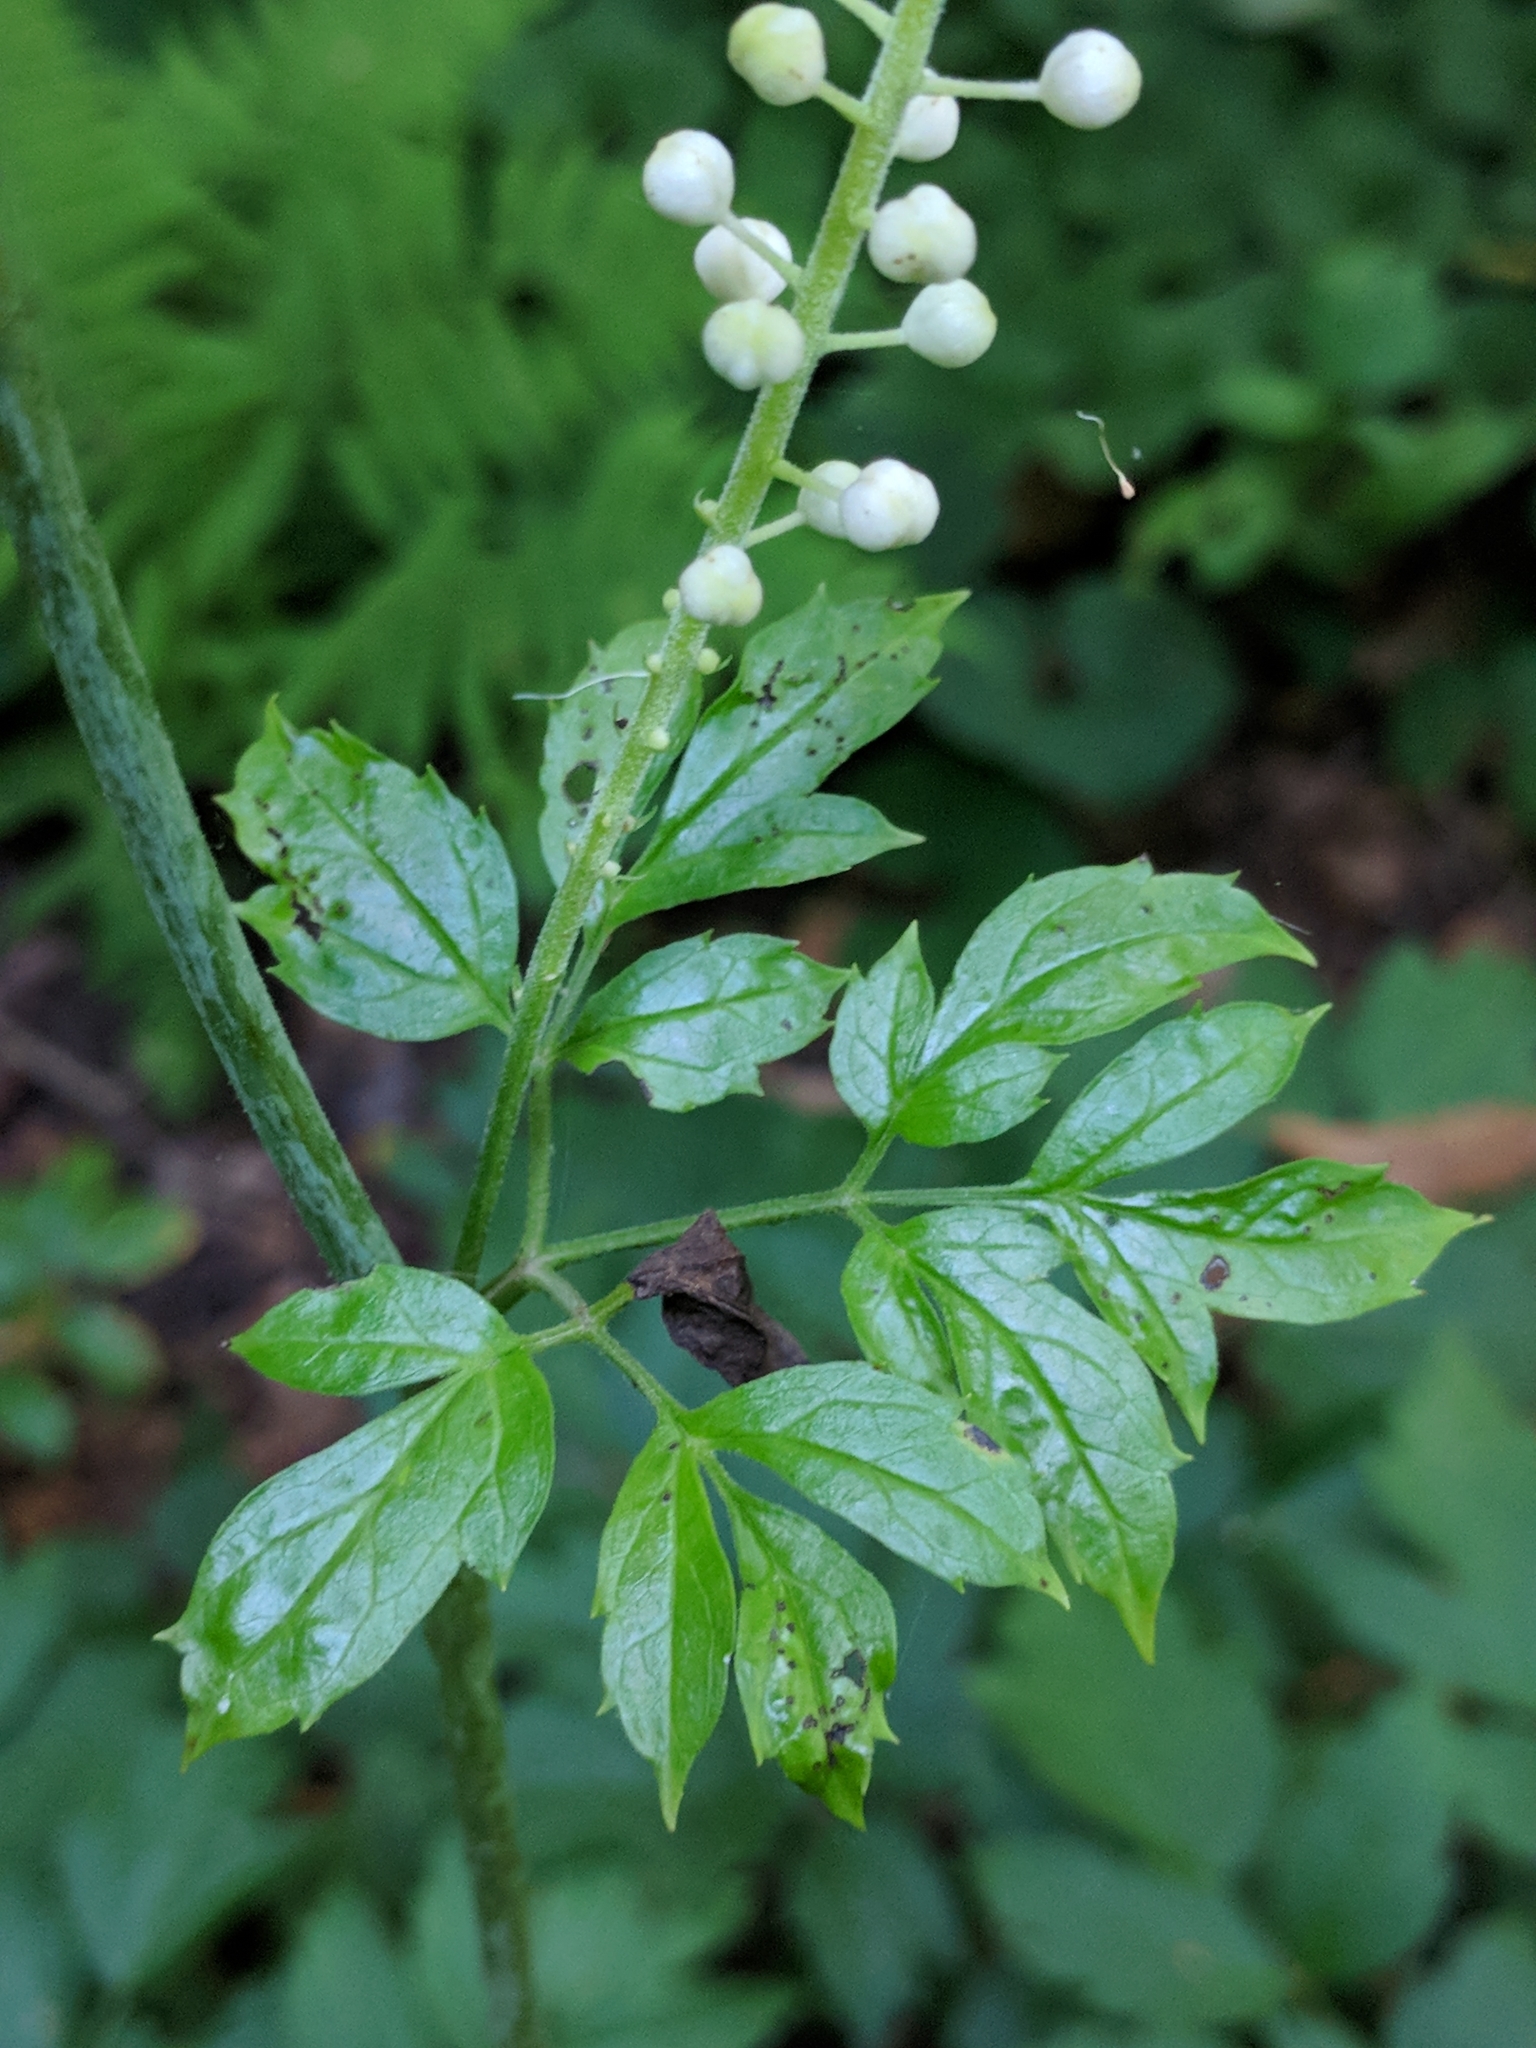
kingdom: Plantae
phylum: Tracheophyta
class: Magnoliopsida
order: Ranunculales
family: Ranunculaceae
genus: Actaea
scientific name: Actaea racemosa
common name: Black cohosh
